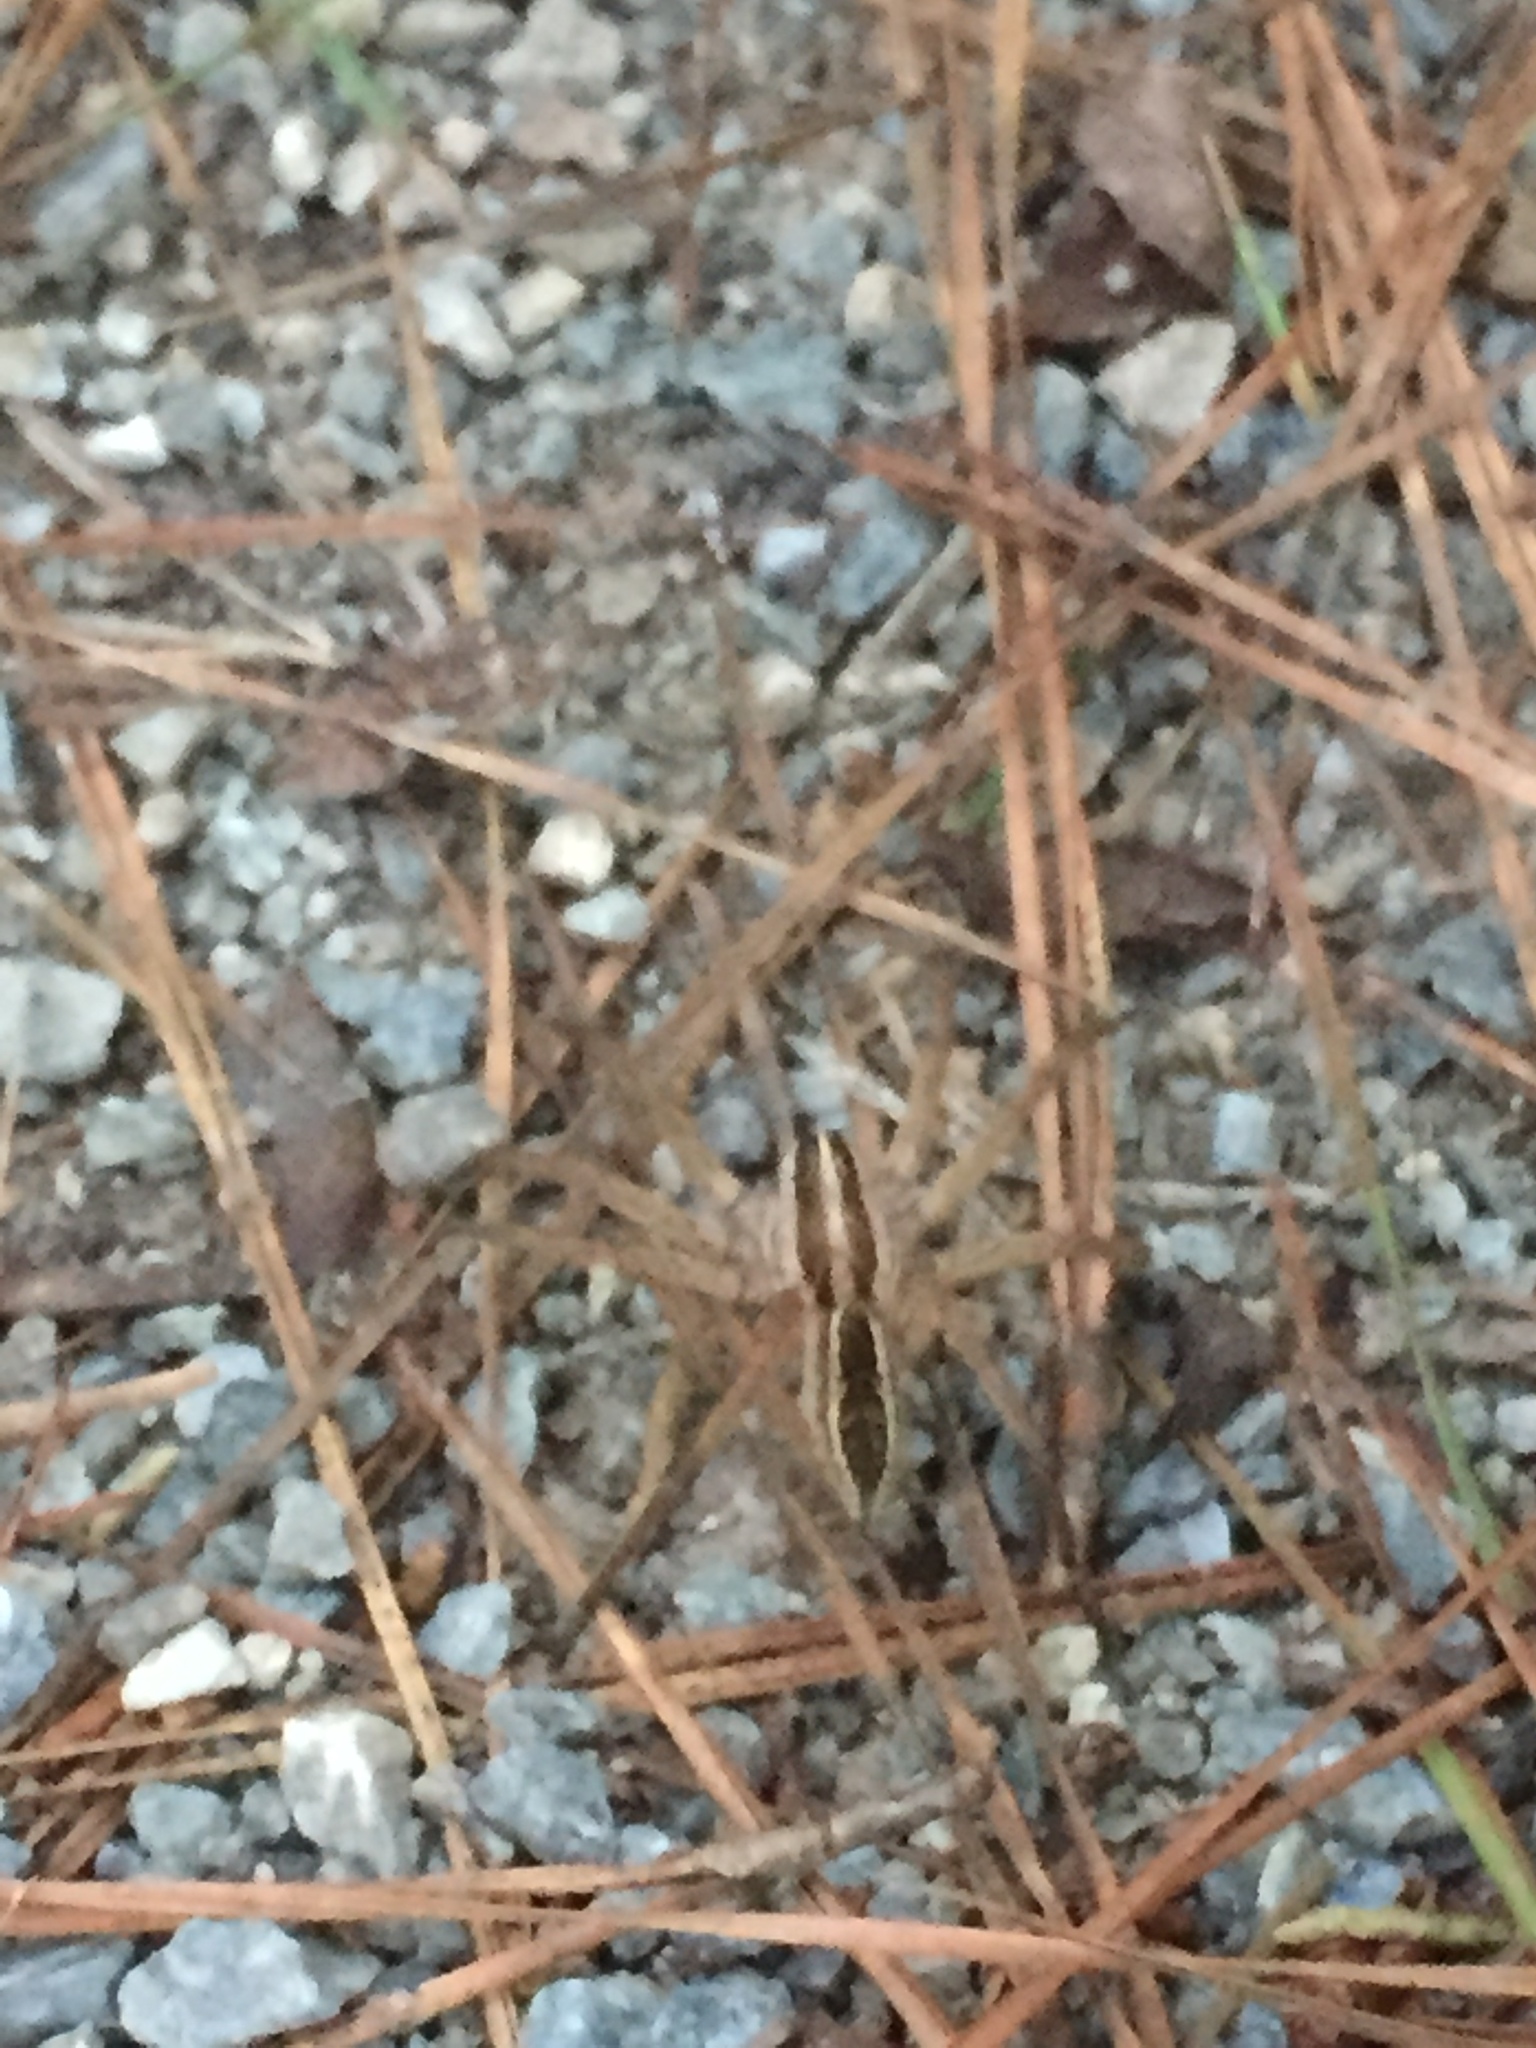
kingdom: Animalia
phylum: Arthropoda
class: Arachnida
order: Araneae
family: Lycosidae
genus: Rabidosa
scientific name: Rabidosa rabida
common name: Rabid wolf spider
